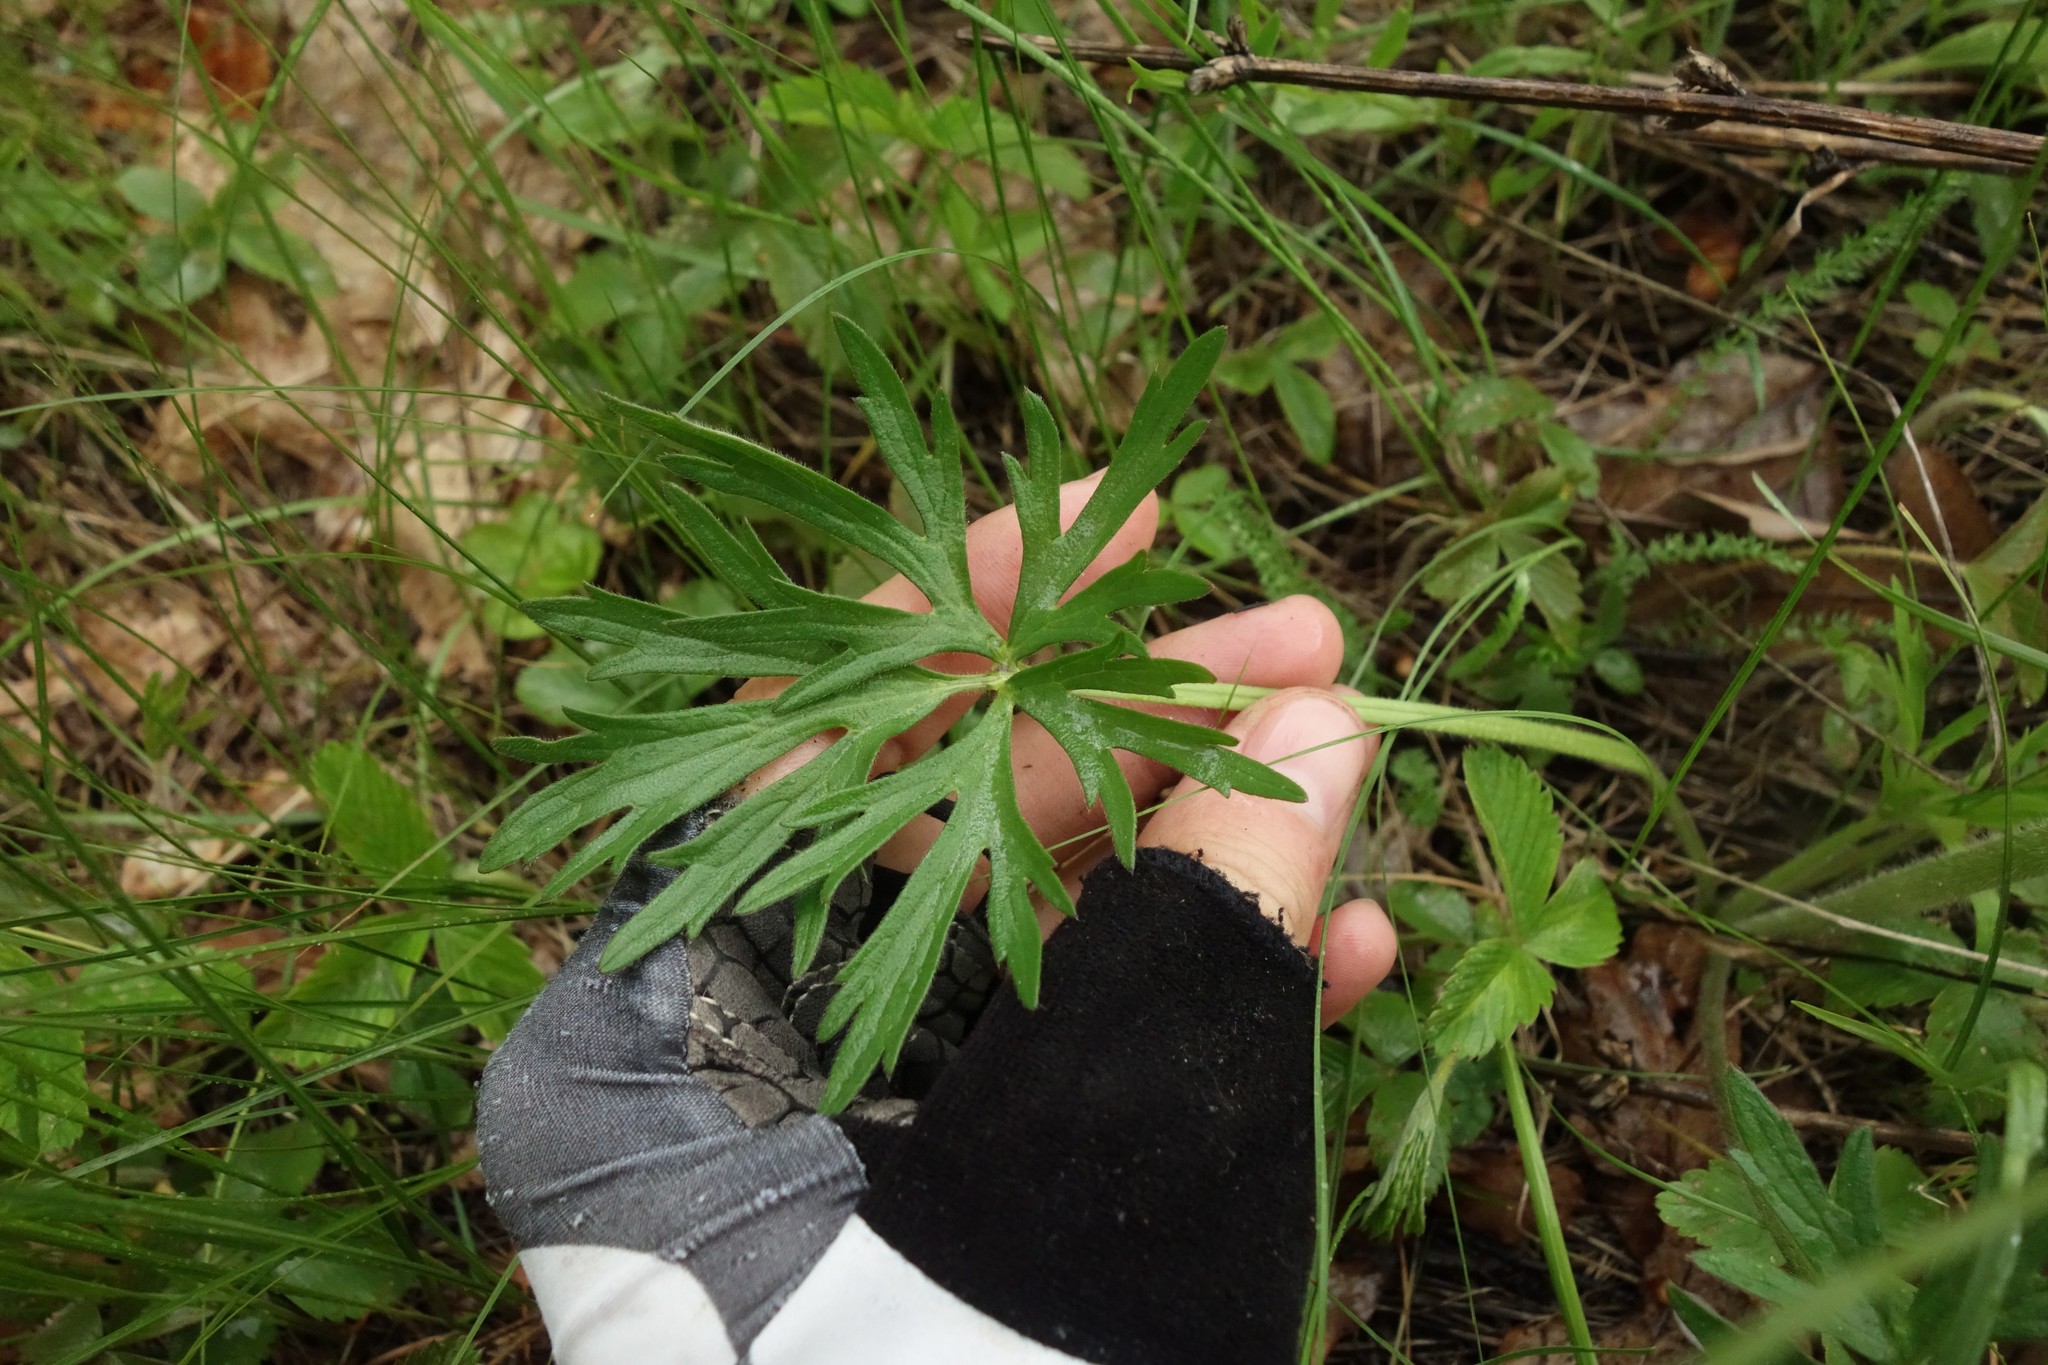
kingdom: Plantae
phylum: Tracheophyta
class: Magnoliopsida
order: Ranunculales
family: Ranunculaceae
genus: Ranunculus
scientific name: Ranunculus polyanthemos
